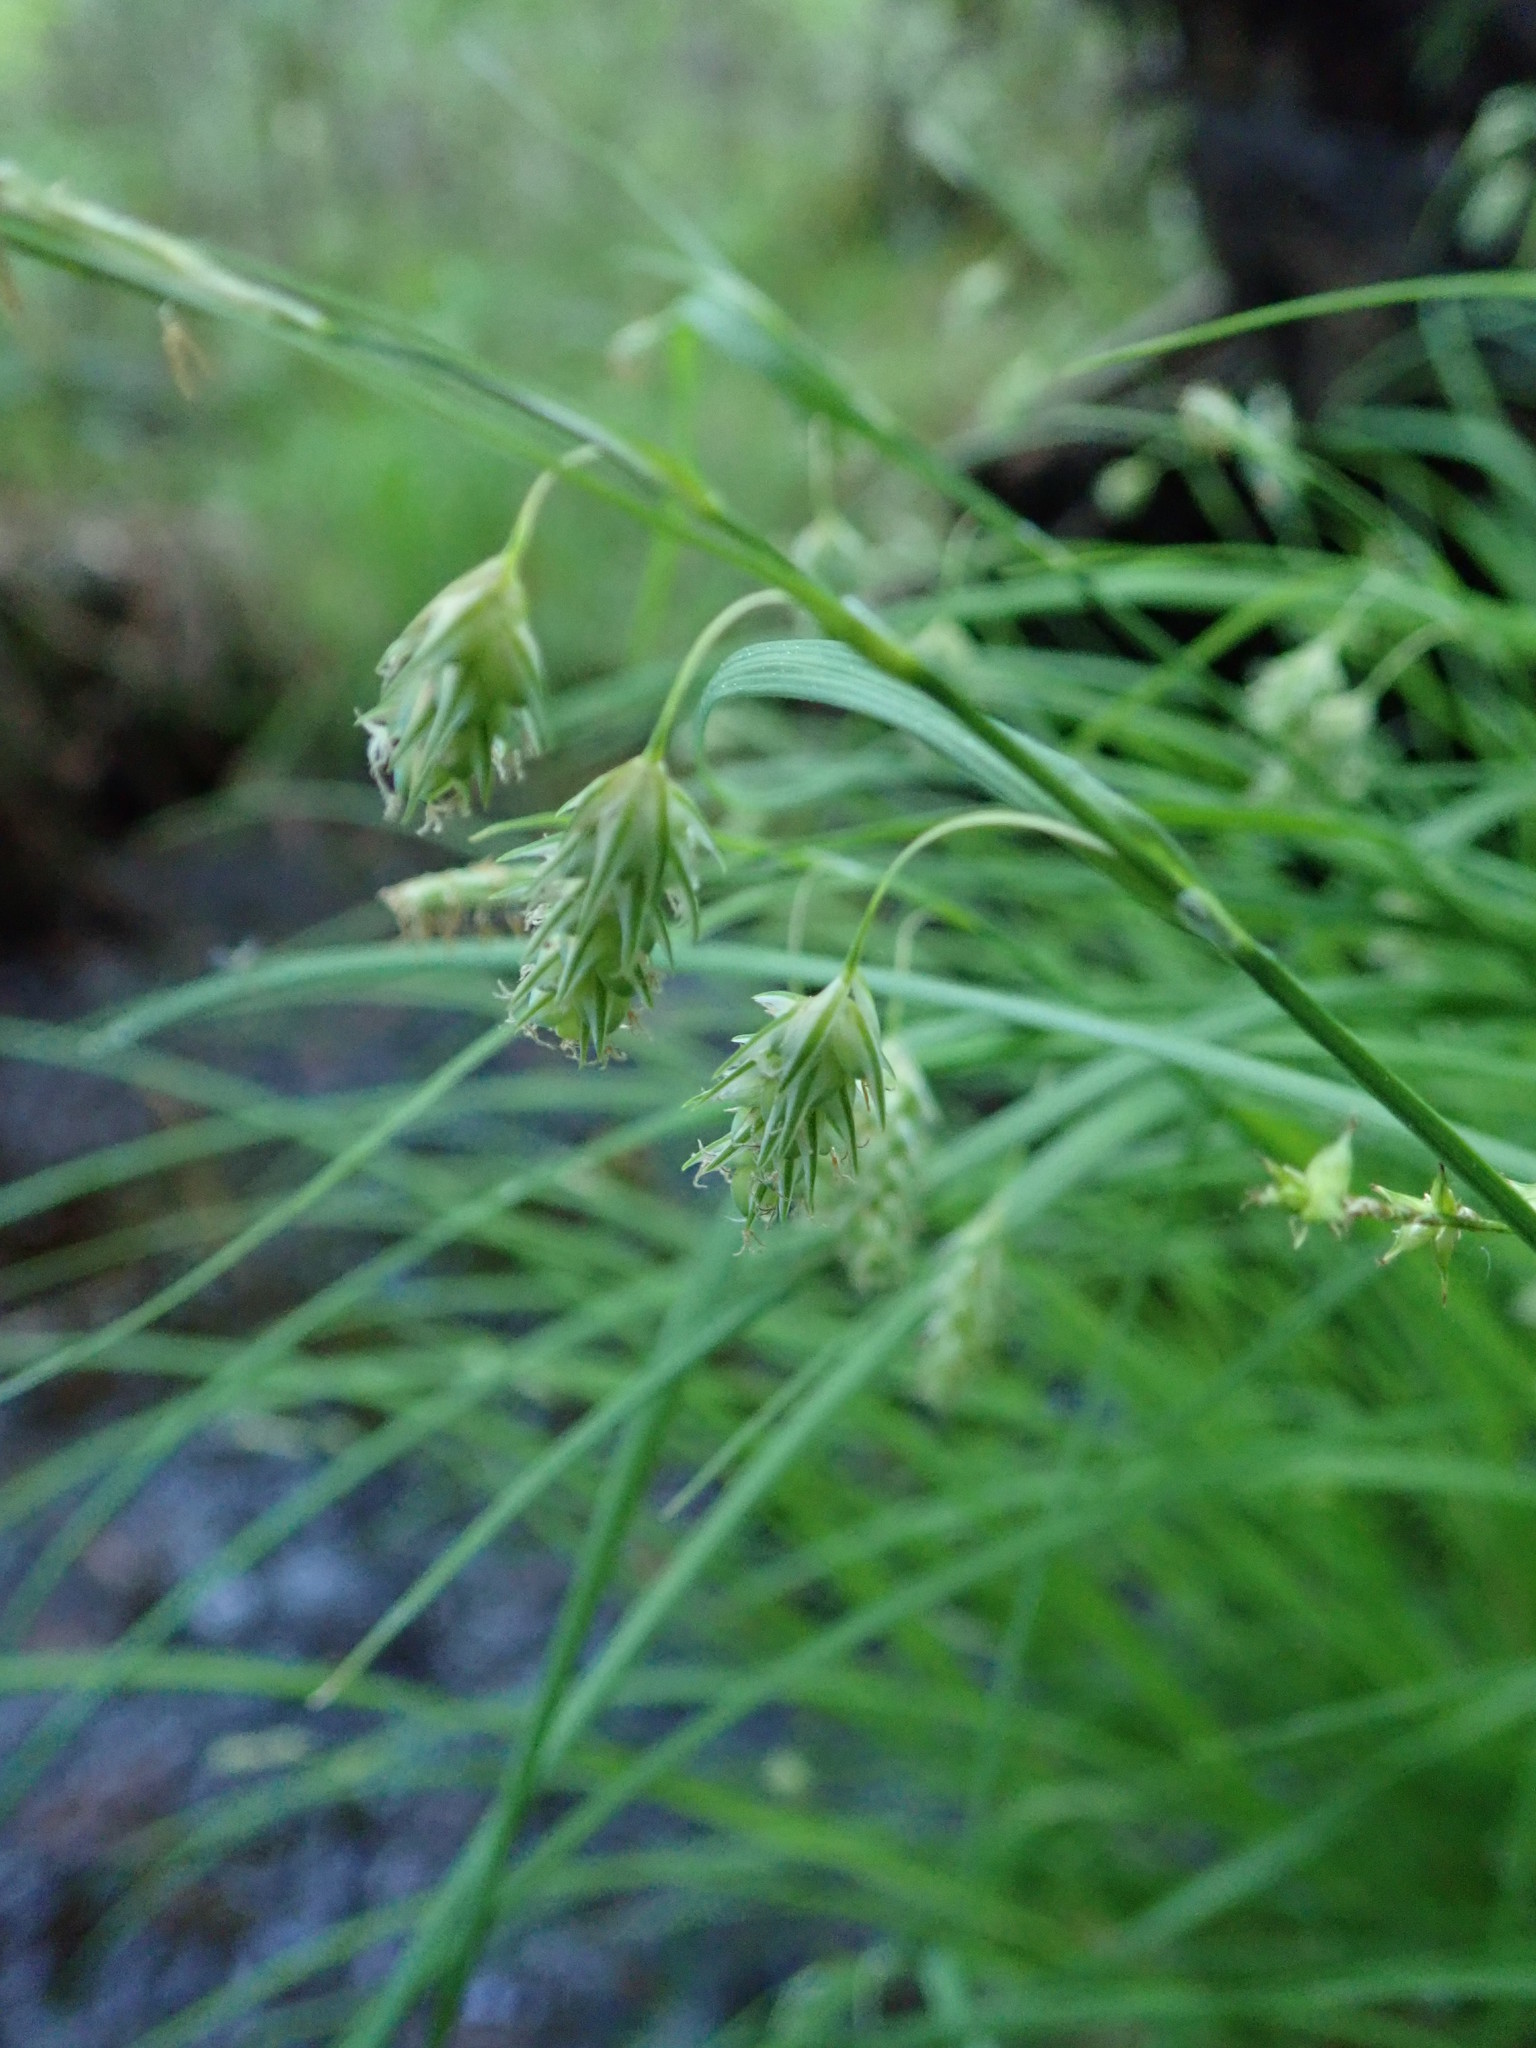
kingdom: Plantae
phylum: Tracheophyta
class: Liliopsida
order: Poales
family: Cyperaceae
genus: Carex
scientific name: Carex magellanica
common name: Bog sedge
